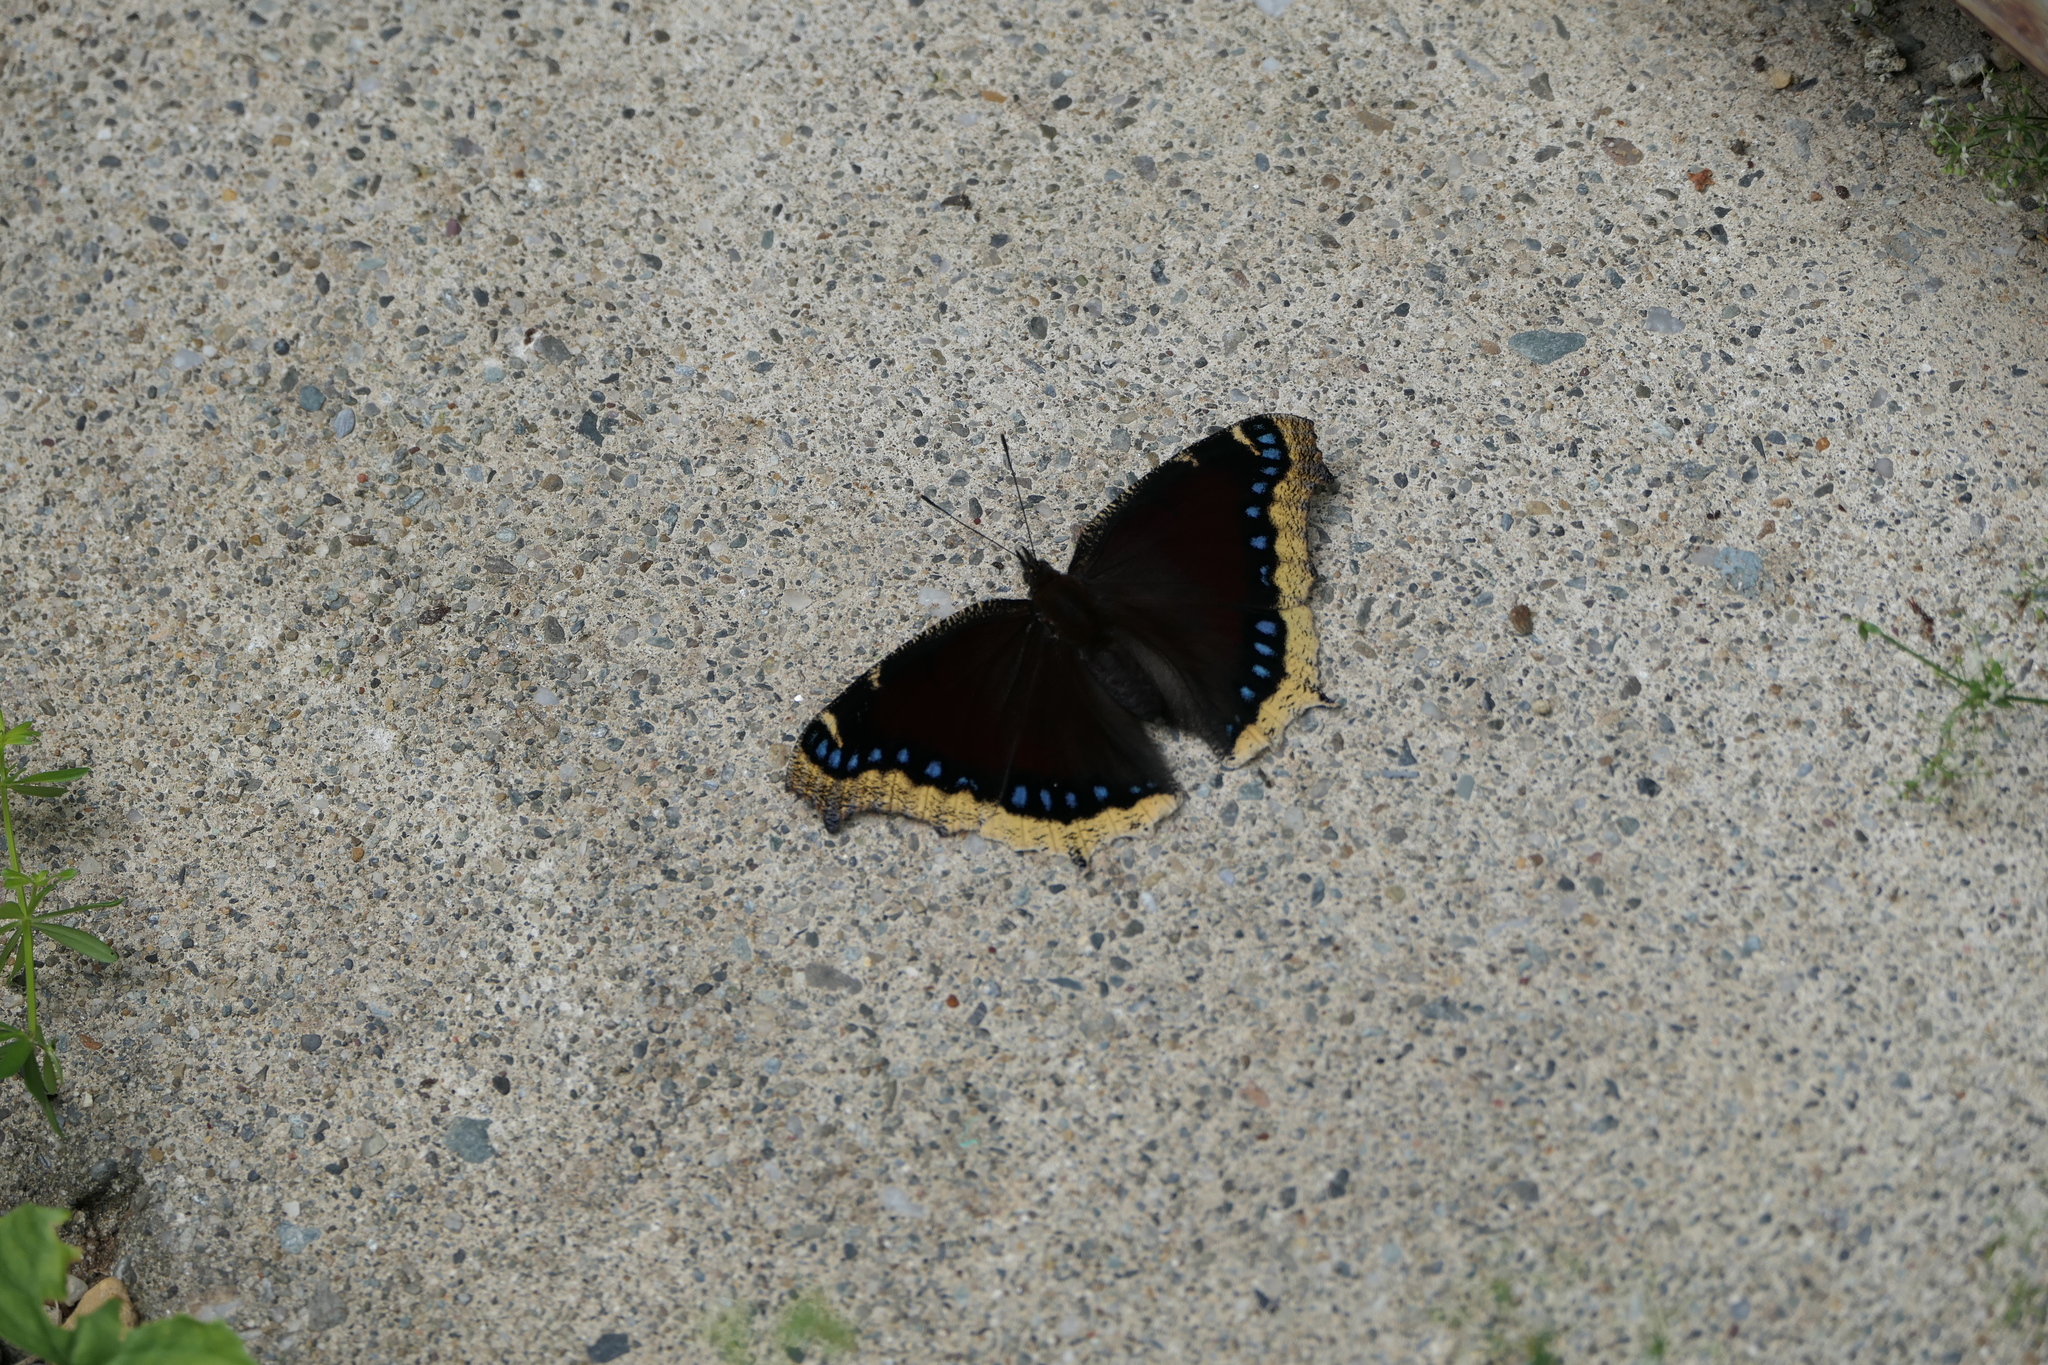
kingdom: Animalia
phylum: Arthropoda
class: Insecta
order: Lepidoptera
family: Nymphalidae
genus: Nymphalis
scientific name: Nymphalis antiopa
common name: Camberwell beauty
